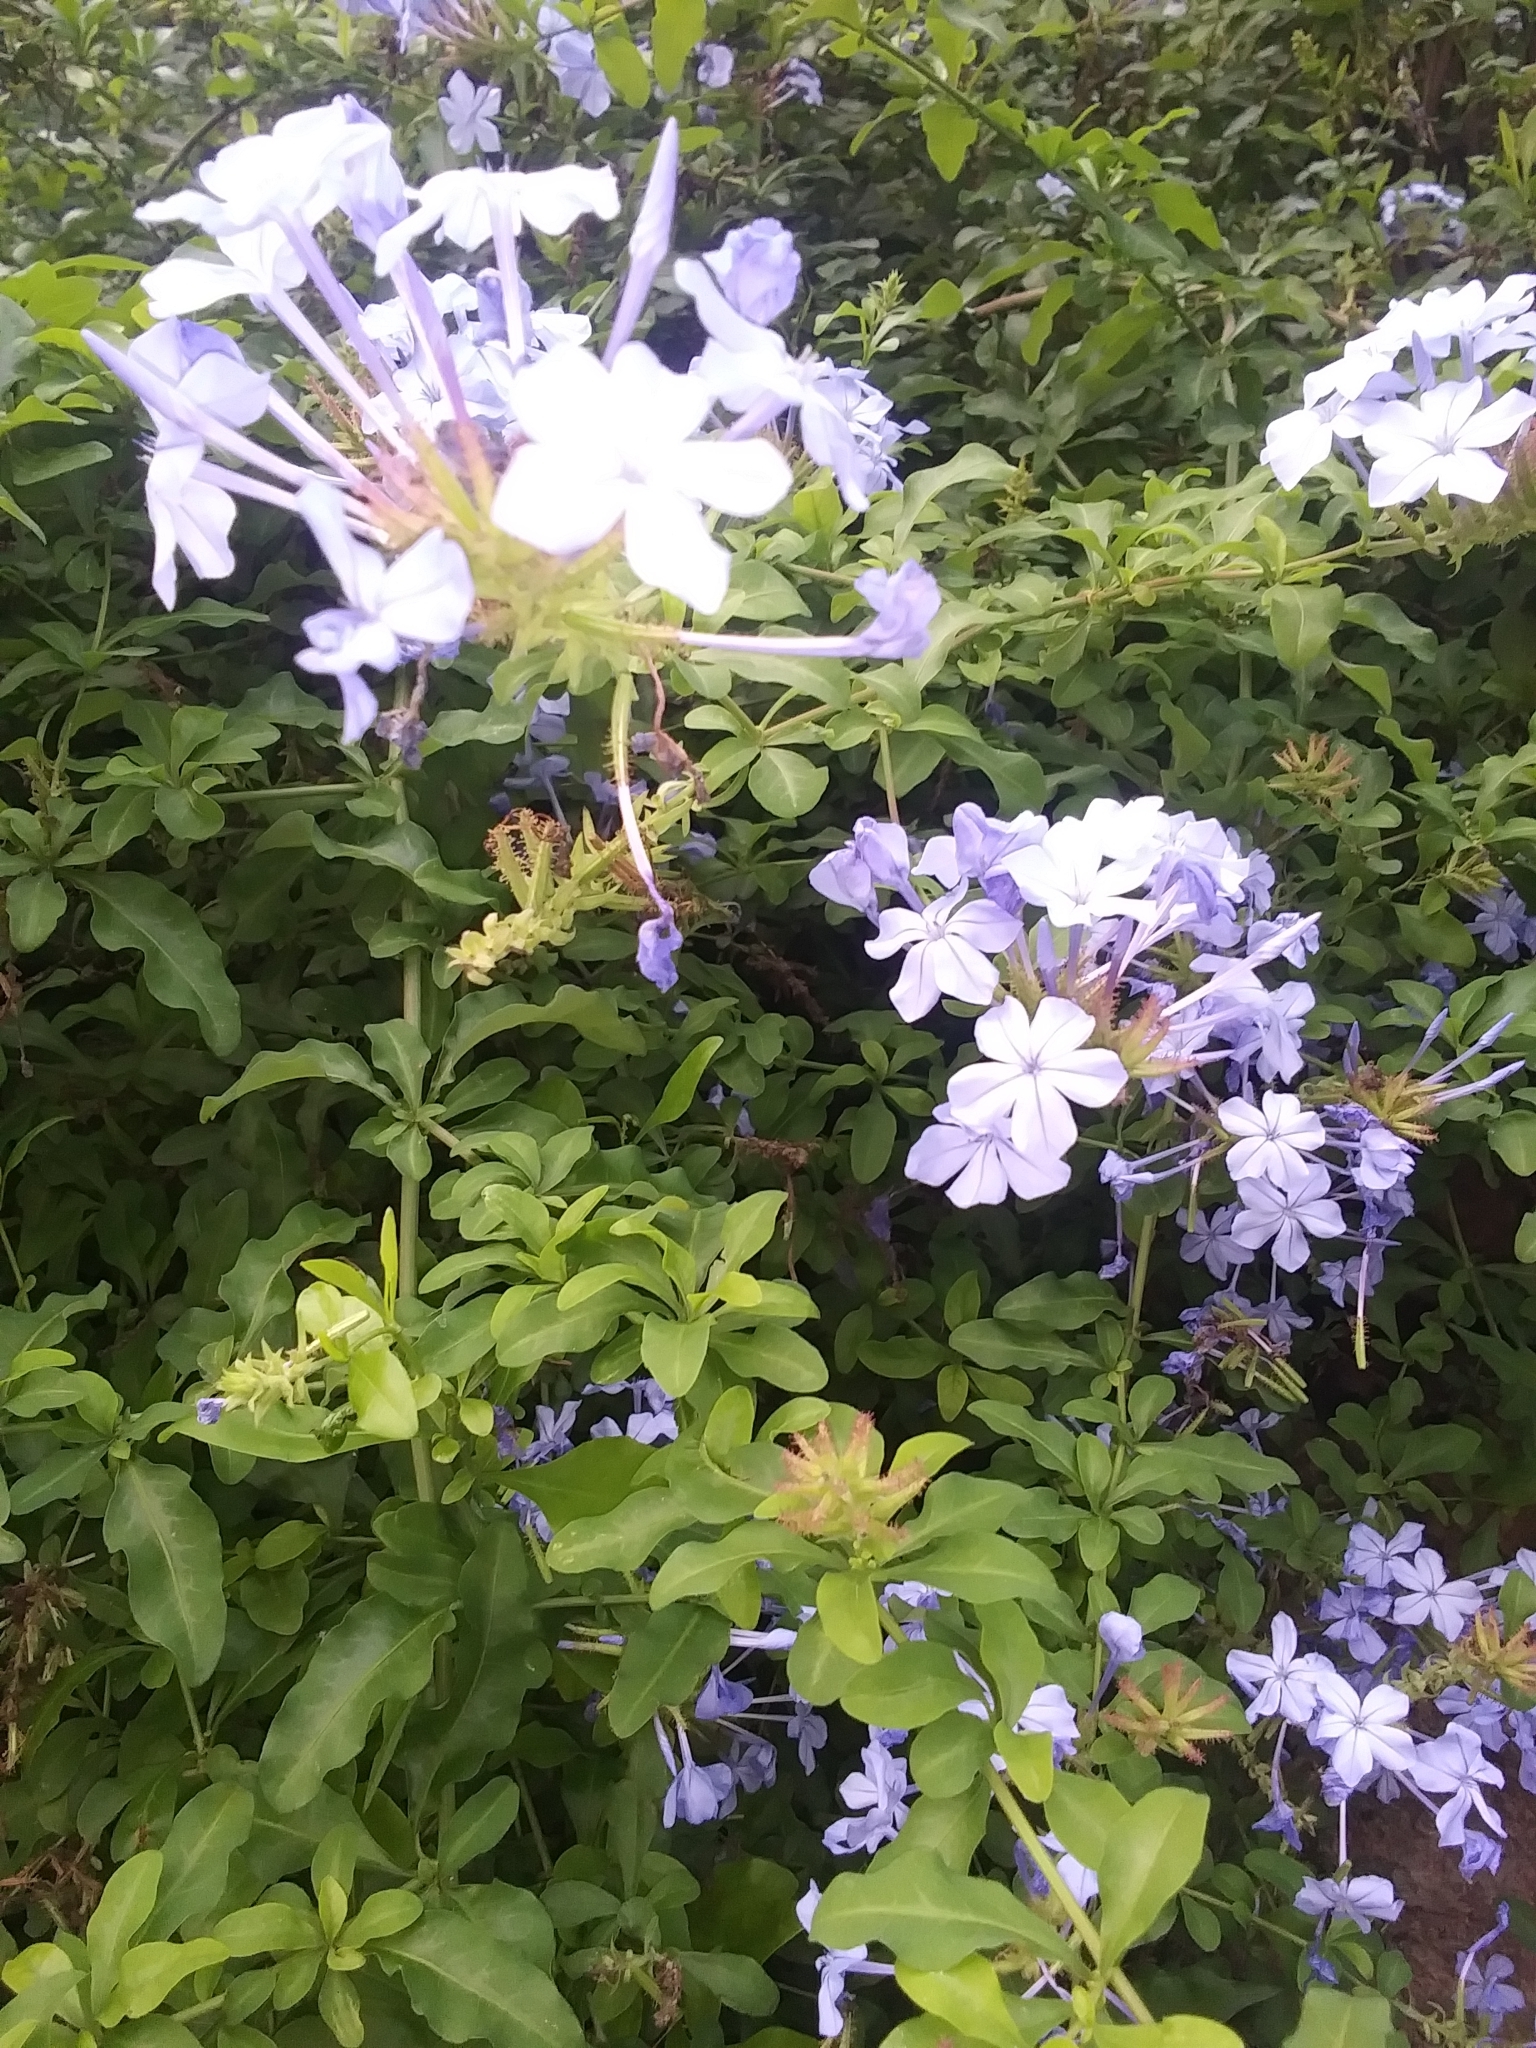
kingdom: Plantae
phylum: Tracheophyta
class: Magnoliopsida
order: Caryophyllales
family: Plumbaginaceae
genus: Plumbago
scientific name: Plumbago auriculata
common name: Cape leadwort
